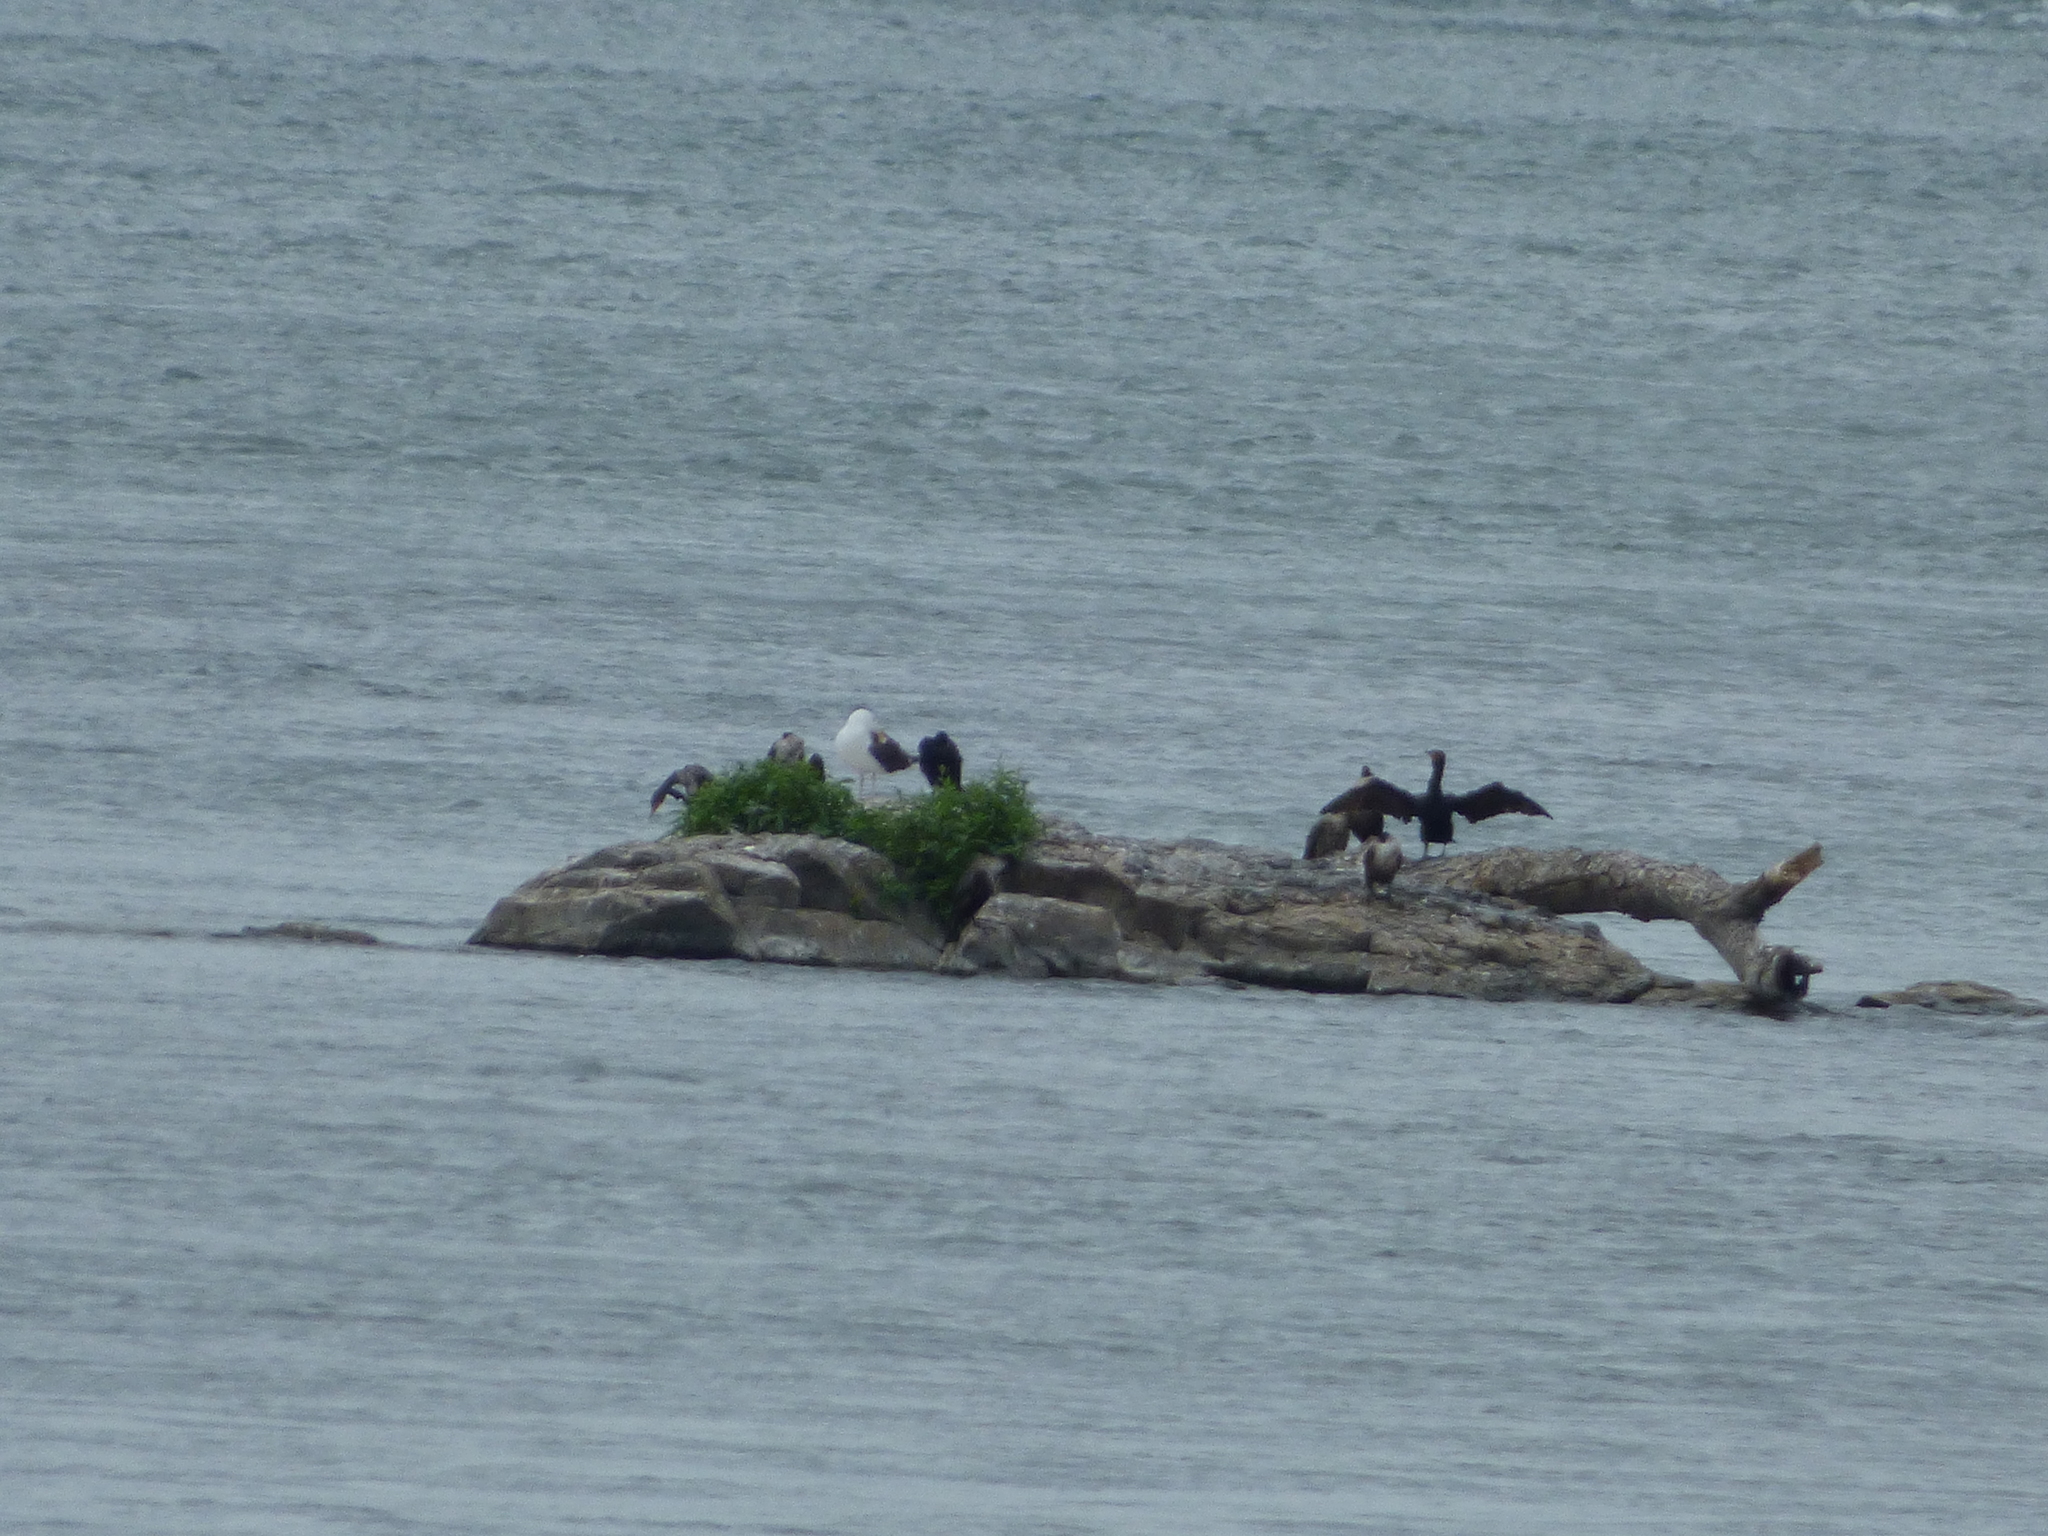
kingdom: Animalia
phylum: Chordata
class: Aves
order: Charadriiformes
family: Laridae
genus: Larus
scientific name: Larus marinus
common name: Great black-backed gull
